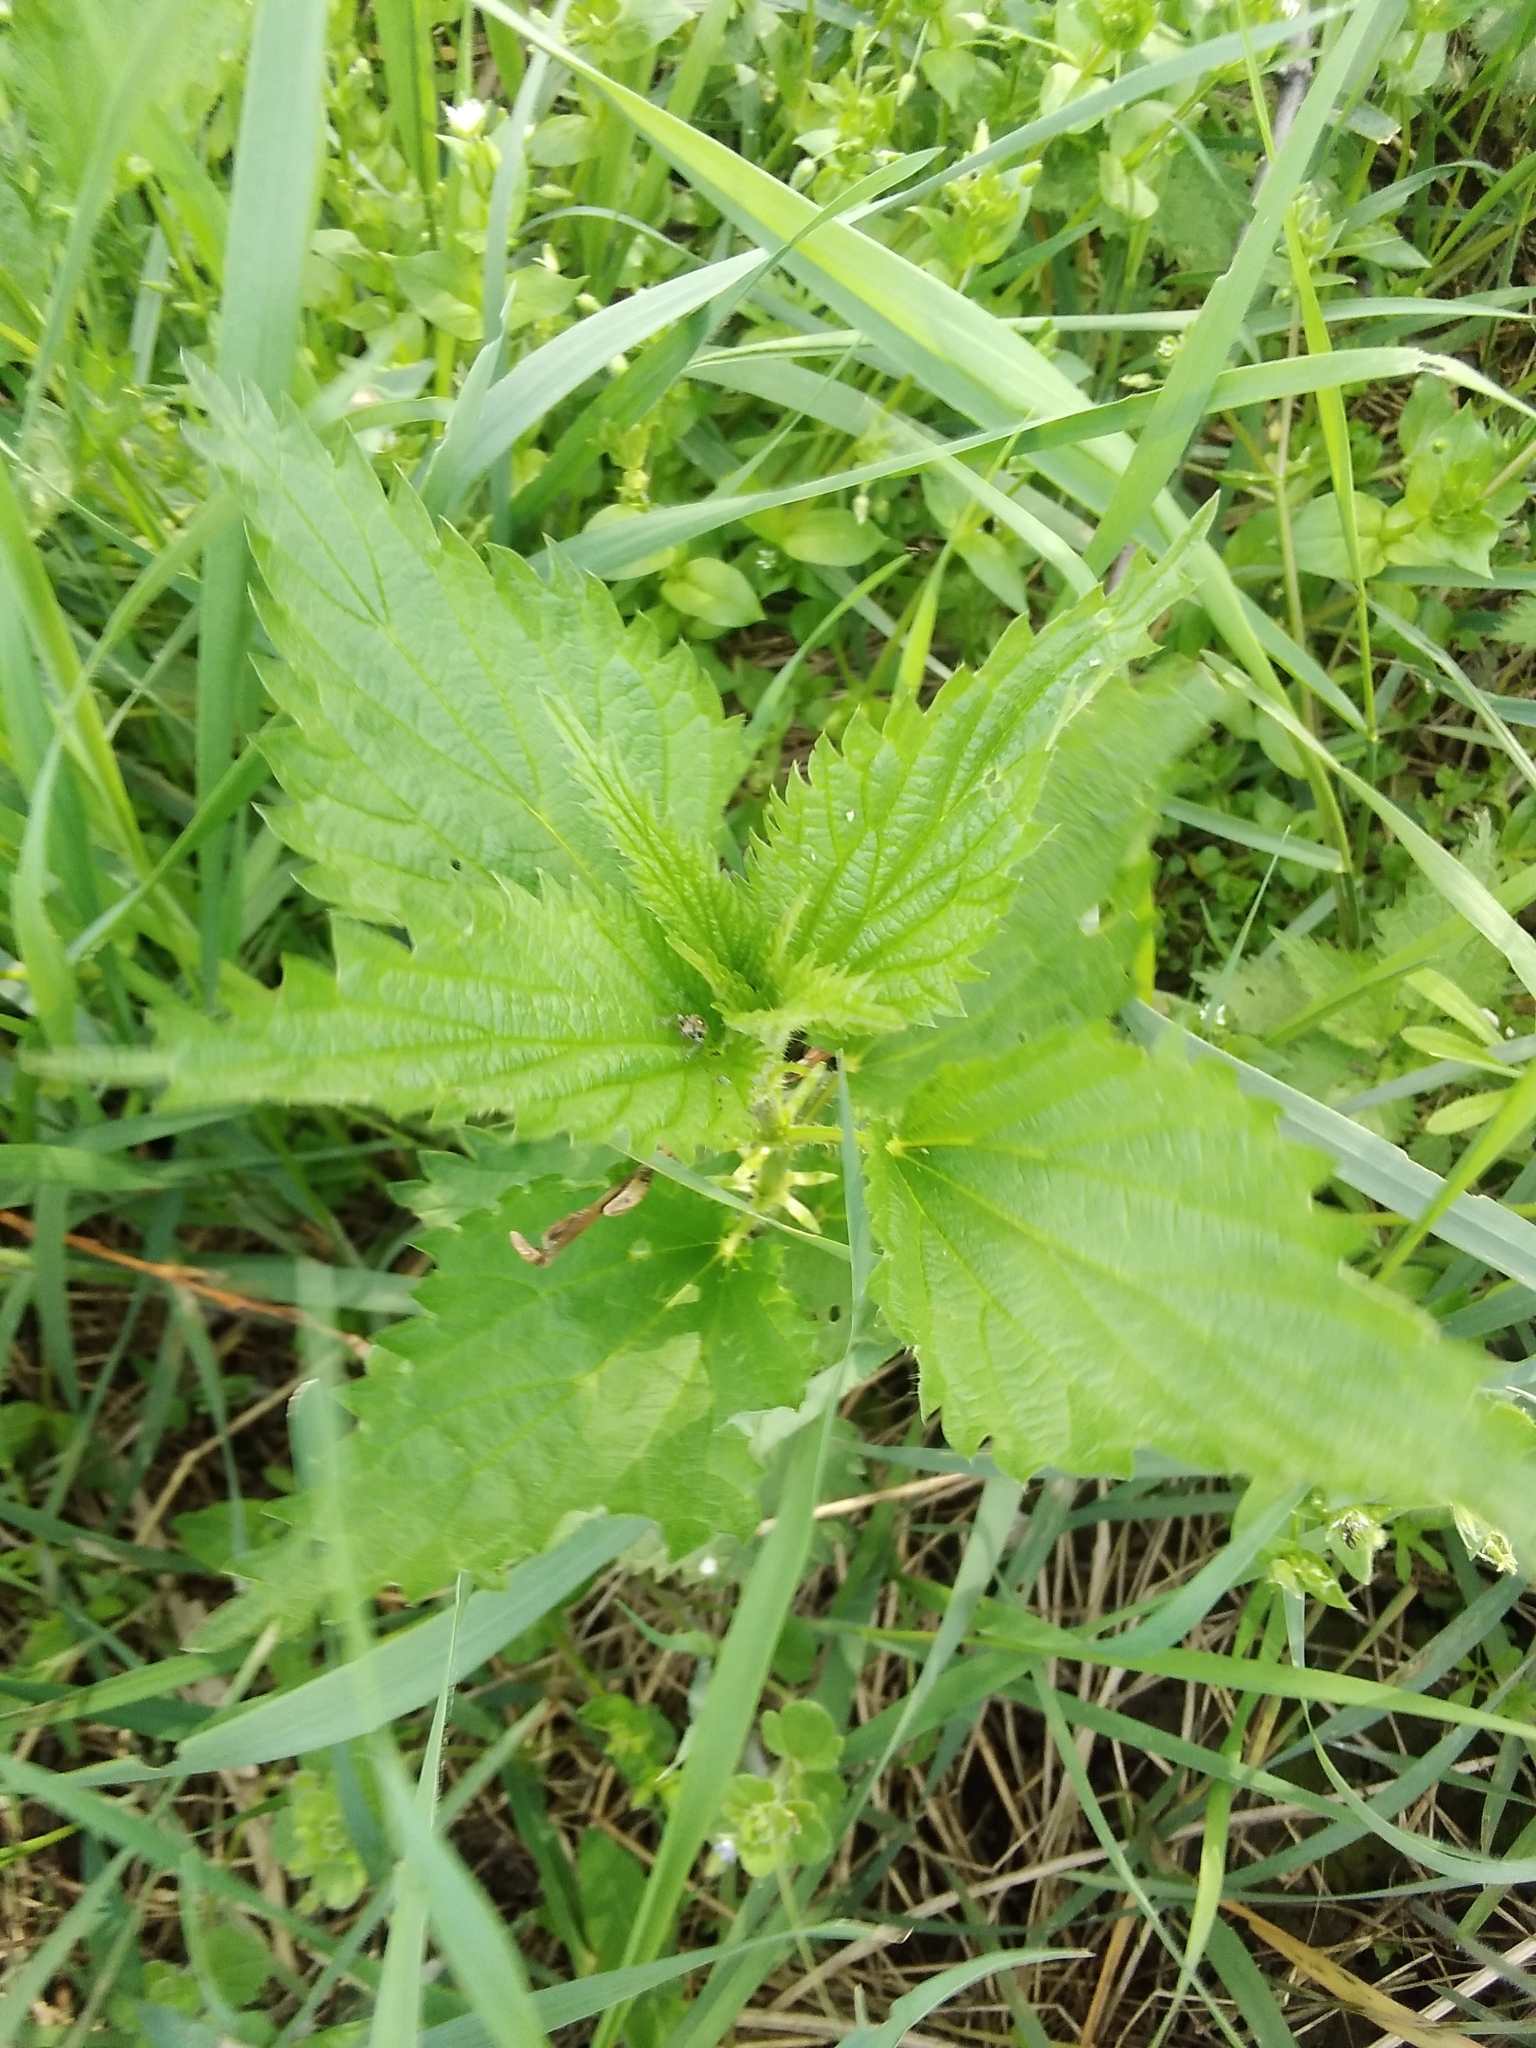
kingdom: Plantae
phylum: Tracheophyta
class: Magnoliopsida
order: Rosales
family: Urticaceae
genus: Urtica
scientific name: Urtica dioica
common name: Common nettle
